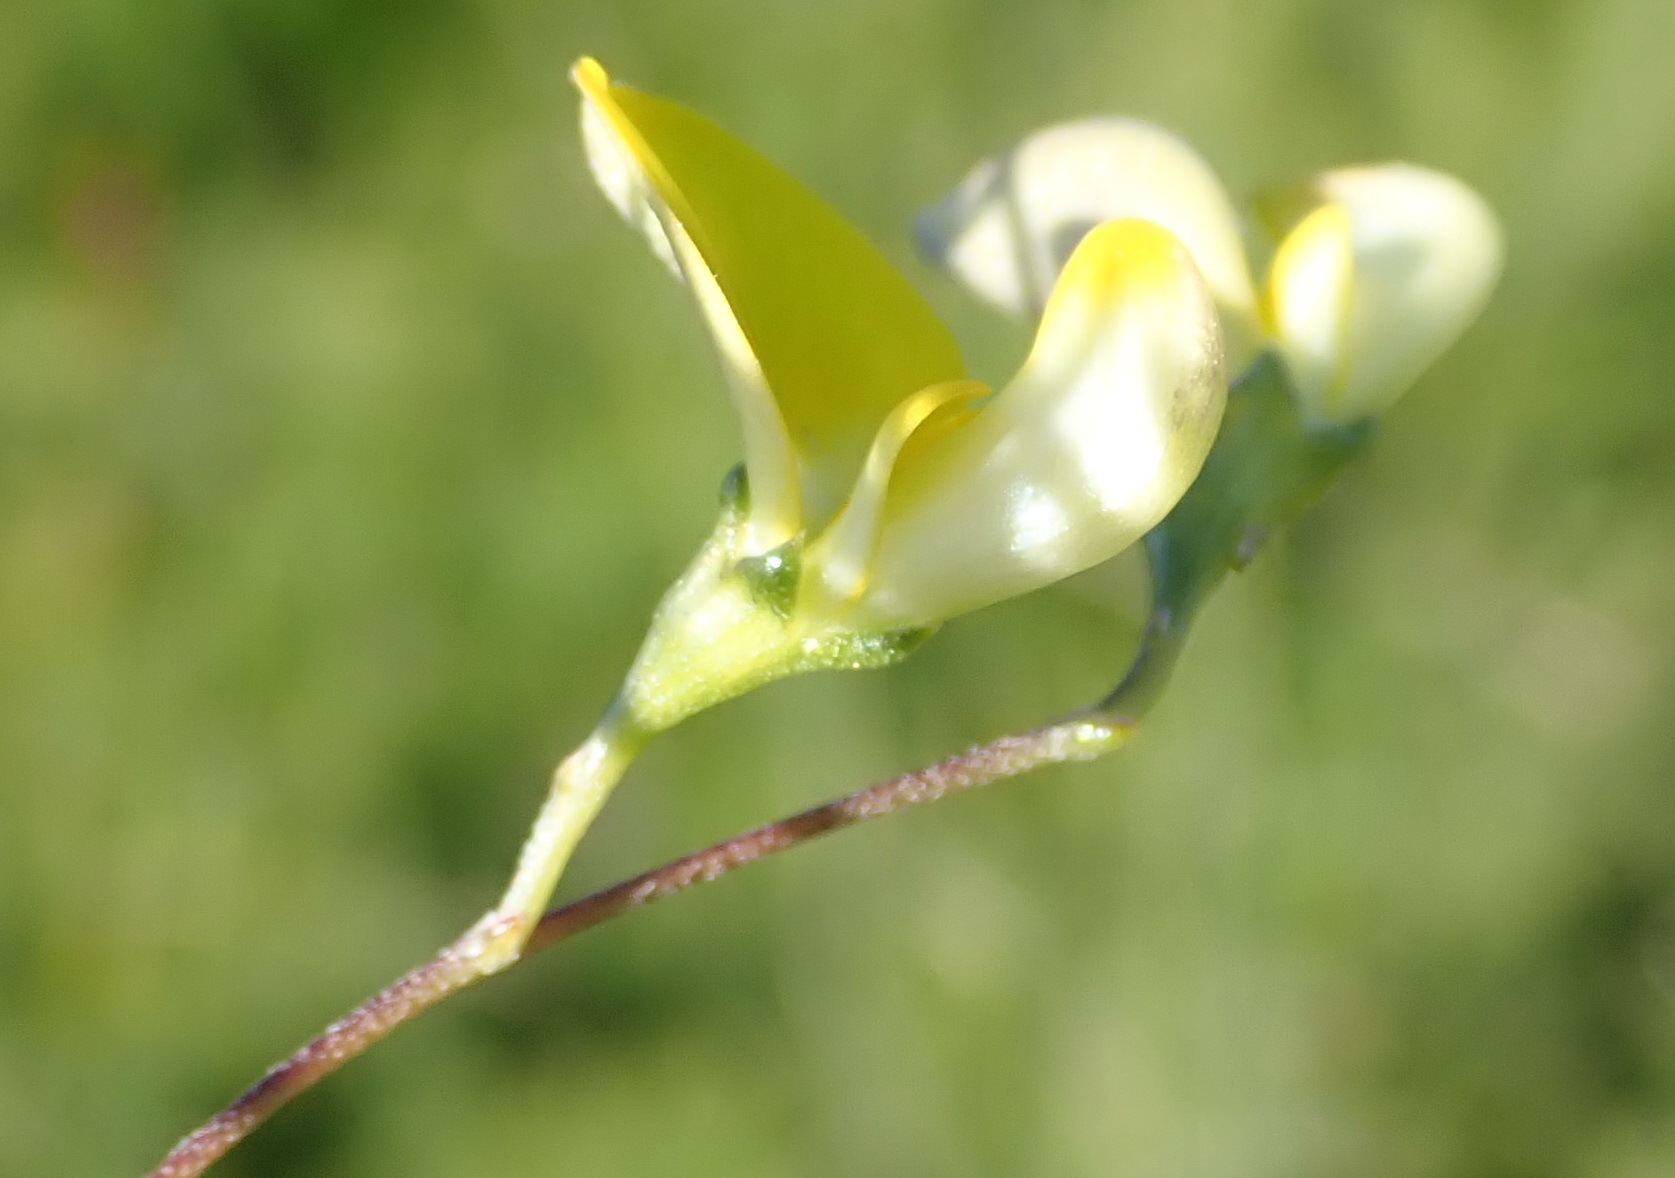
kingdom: Plantae
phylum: Tracheophyta
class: Magnoliopsida
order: Fabales
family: Fabaceae
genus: Aspalathus
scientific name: Aspalathus biflora
